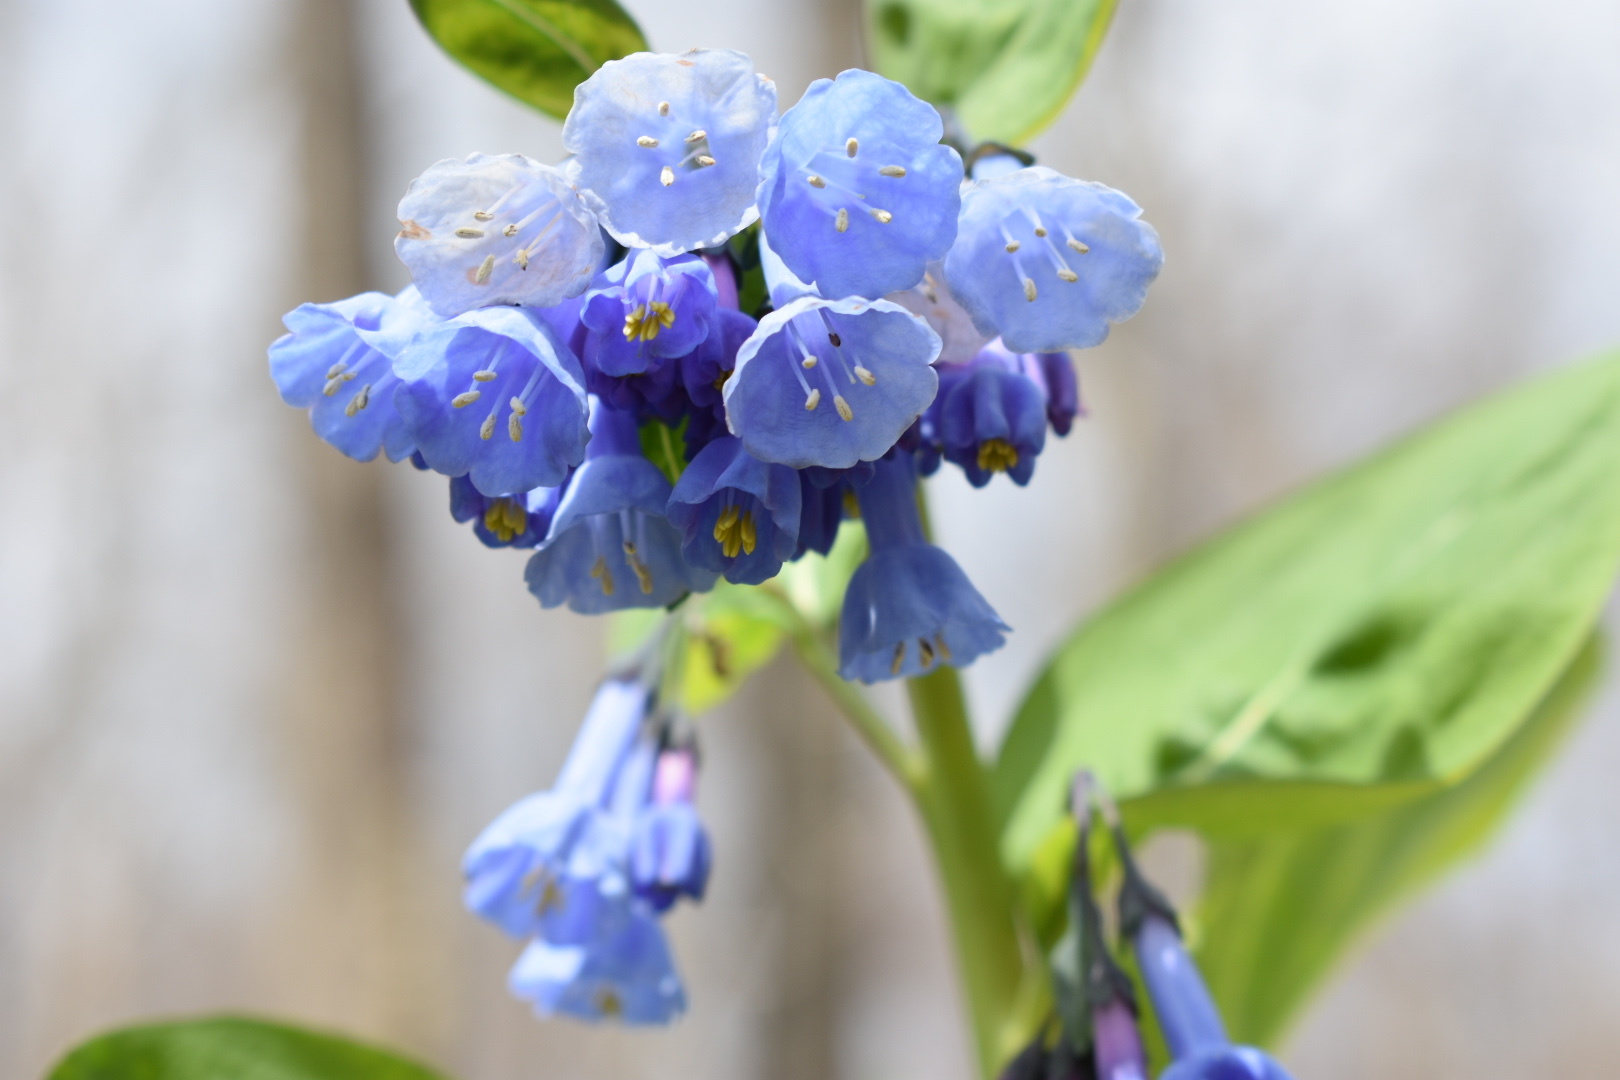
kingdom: Plantae
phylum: Tracheophyta
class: Magnoliopsida
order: Boraginales
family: Boraginaceae
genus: Mertensia
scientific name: Mertensia virginica
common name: Virginia bluebells
